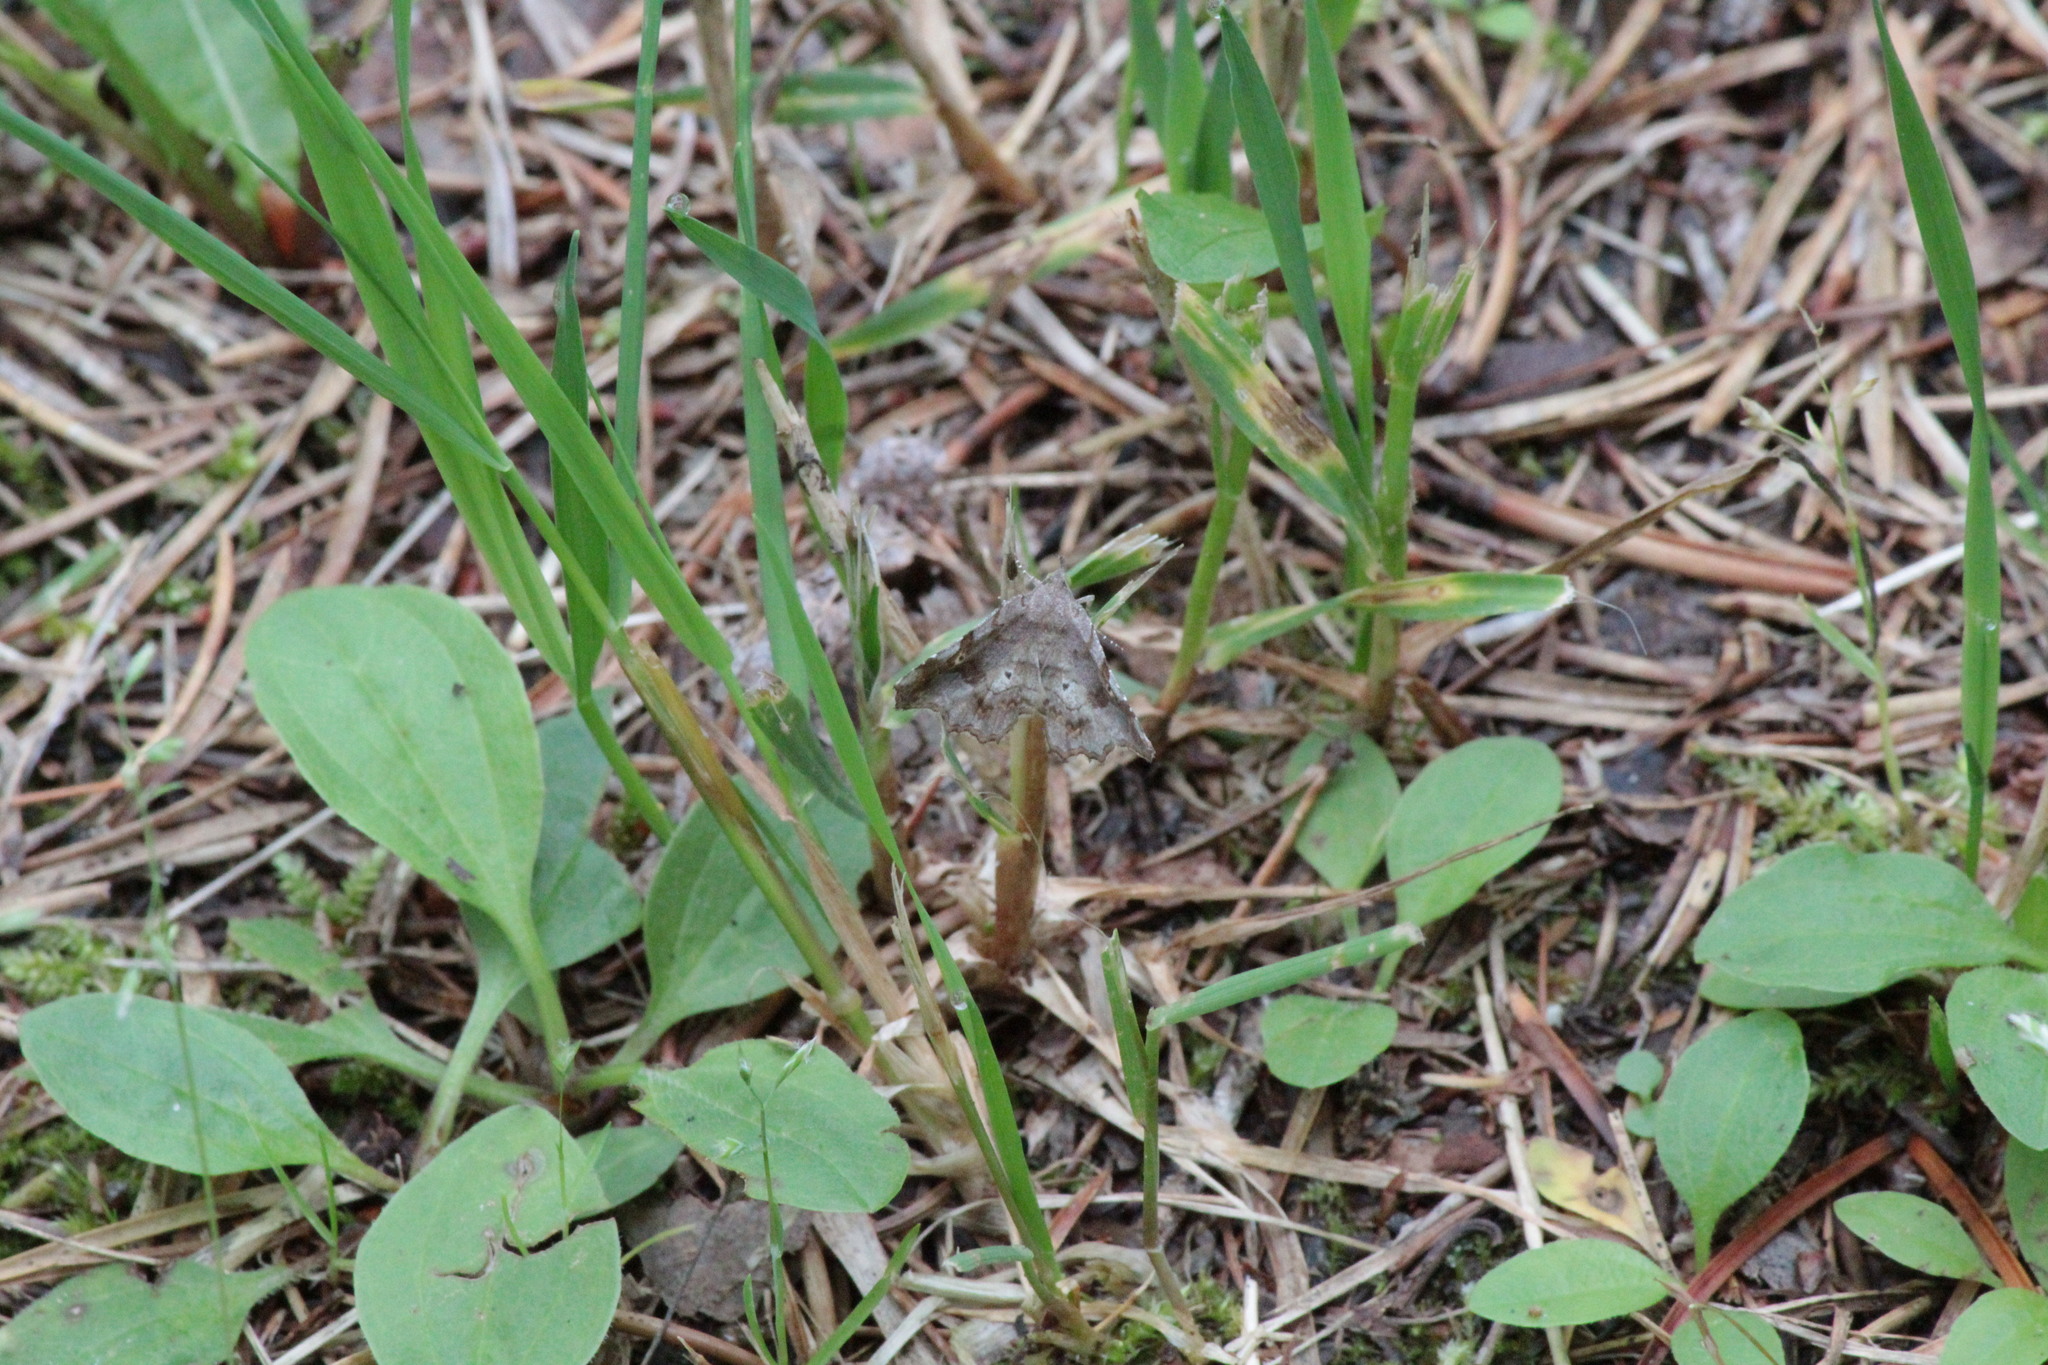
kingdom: Animalia
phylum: Arthropoda
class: Insecta
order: Lepidoptera
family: Erebidae
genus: Pangrapta
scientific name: Pangrapta decoralis
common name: Decorated owlet
